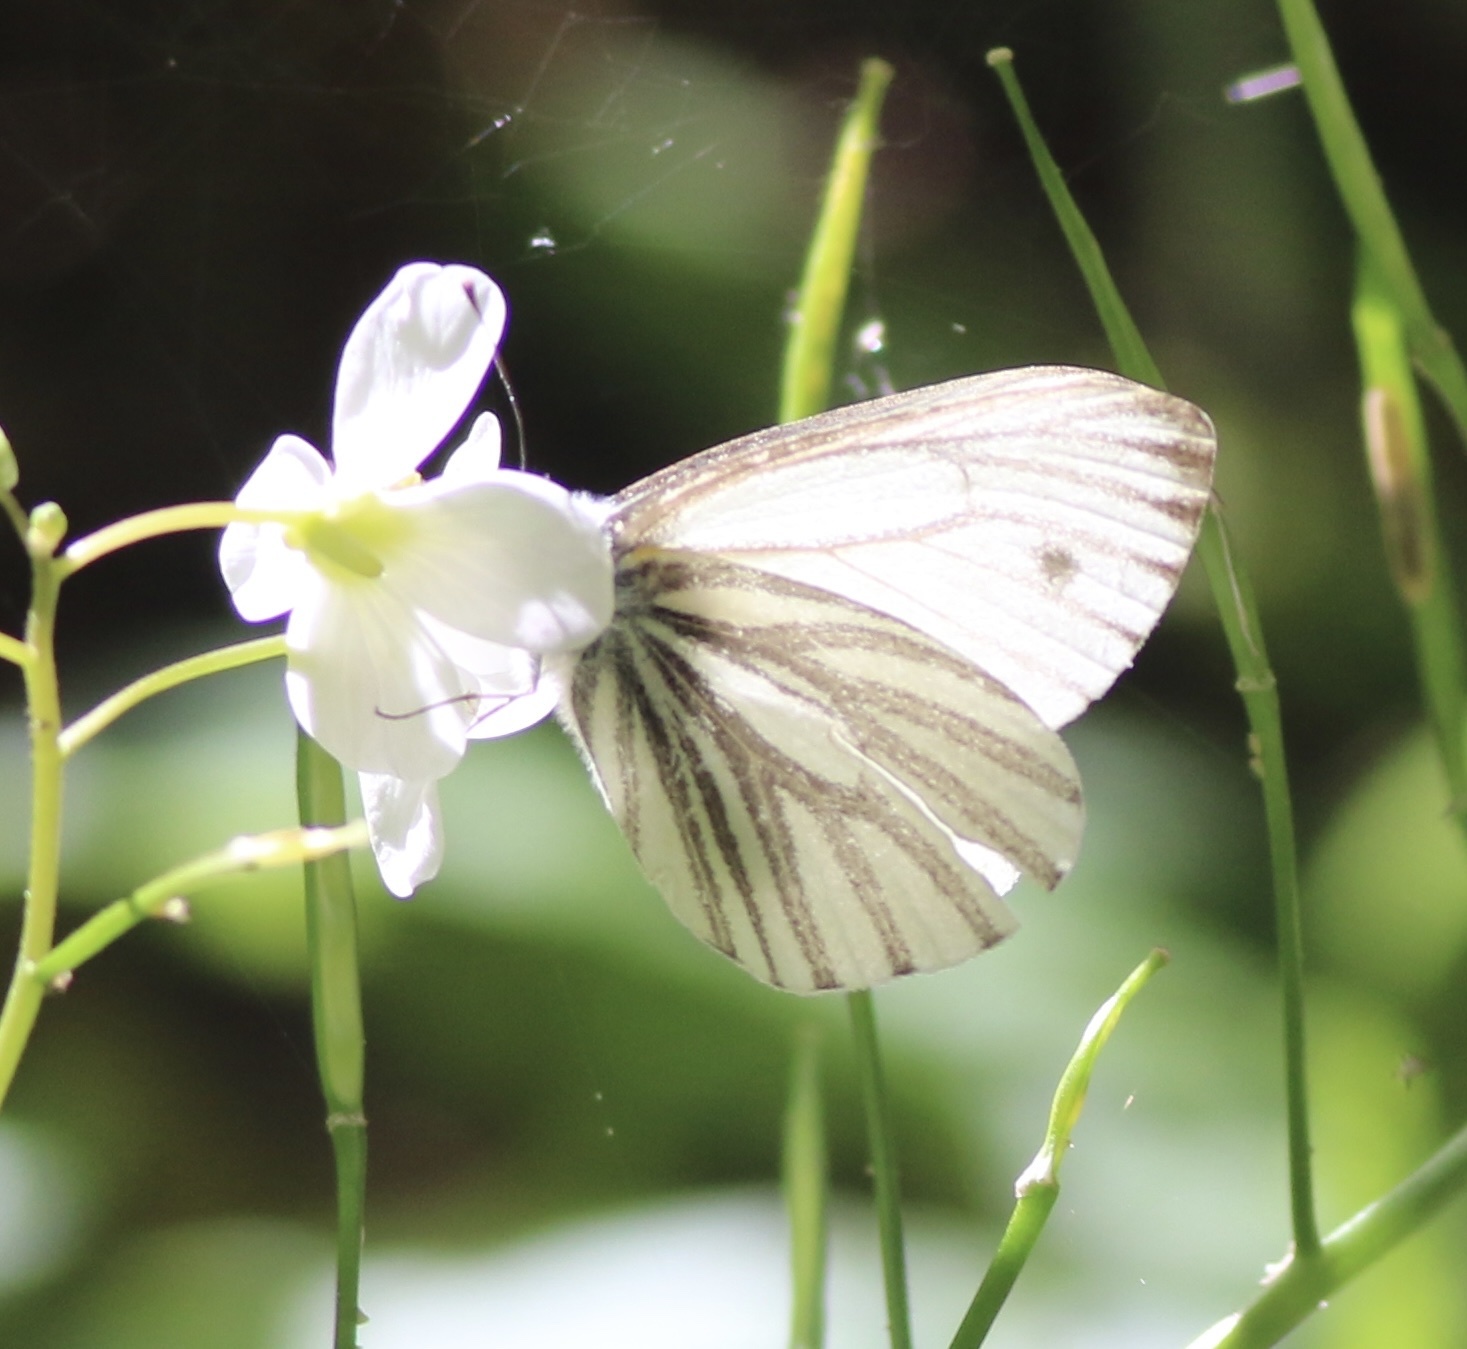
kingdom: Animalia
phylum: Arthropoda
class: Insecta
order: Lepidoptera
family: Pieridae
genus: Pieris
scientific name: Pieris marginalis
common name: Margined white
